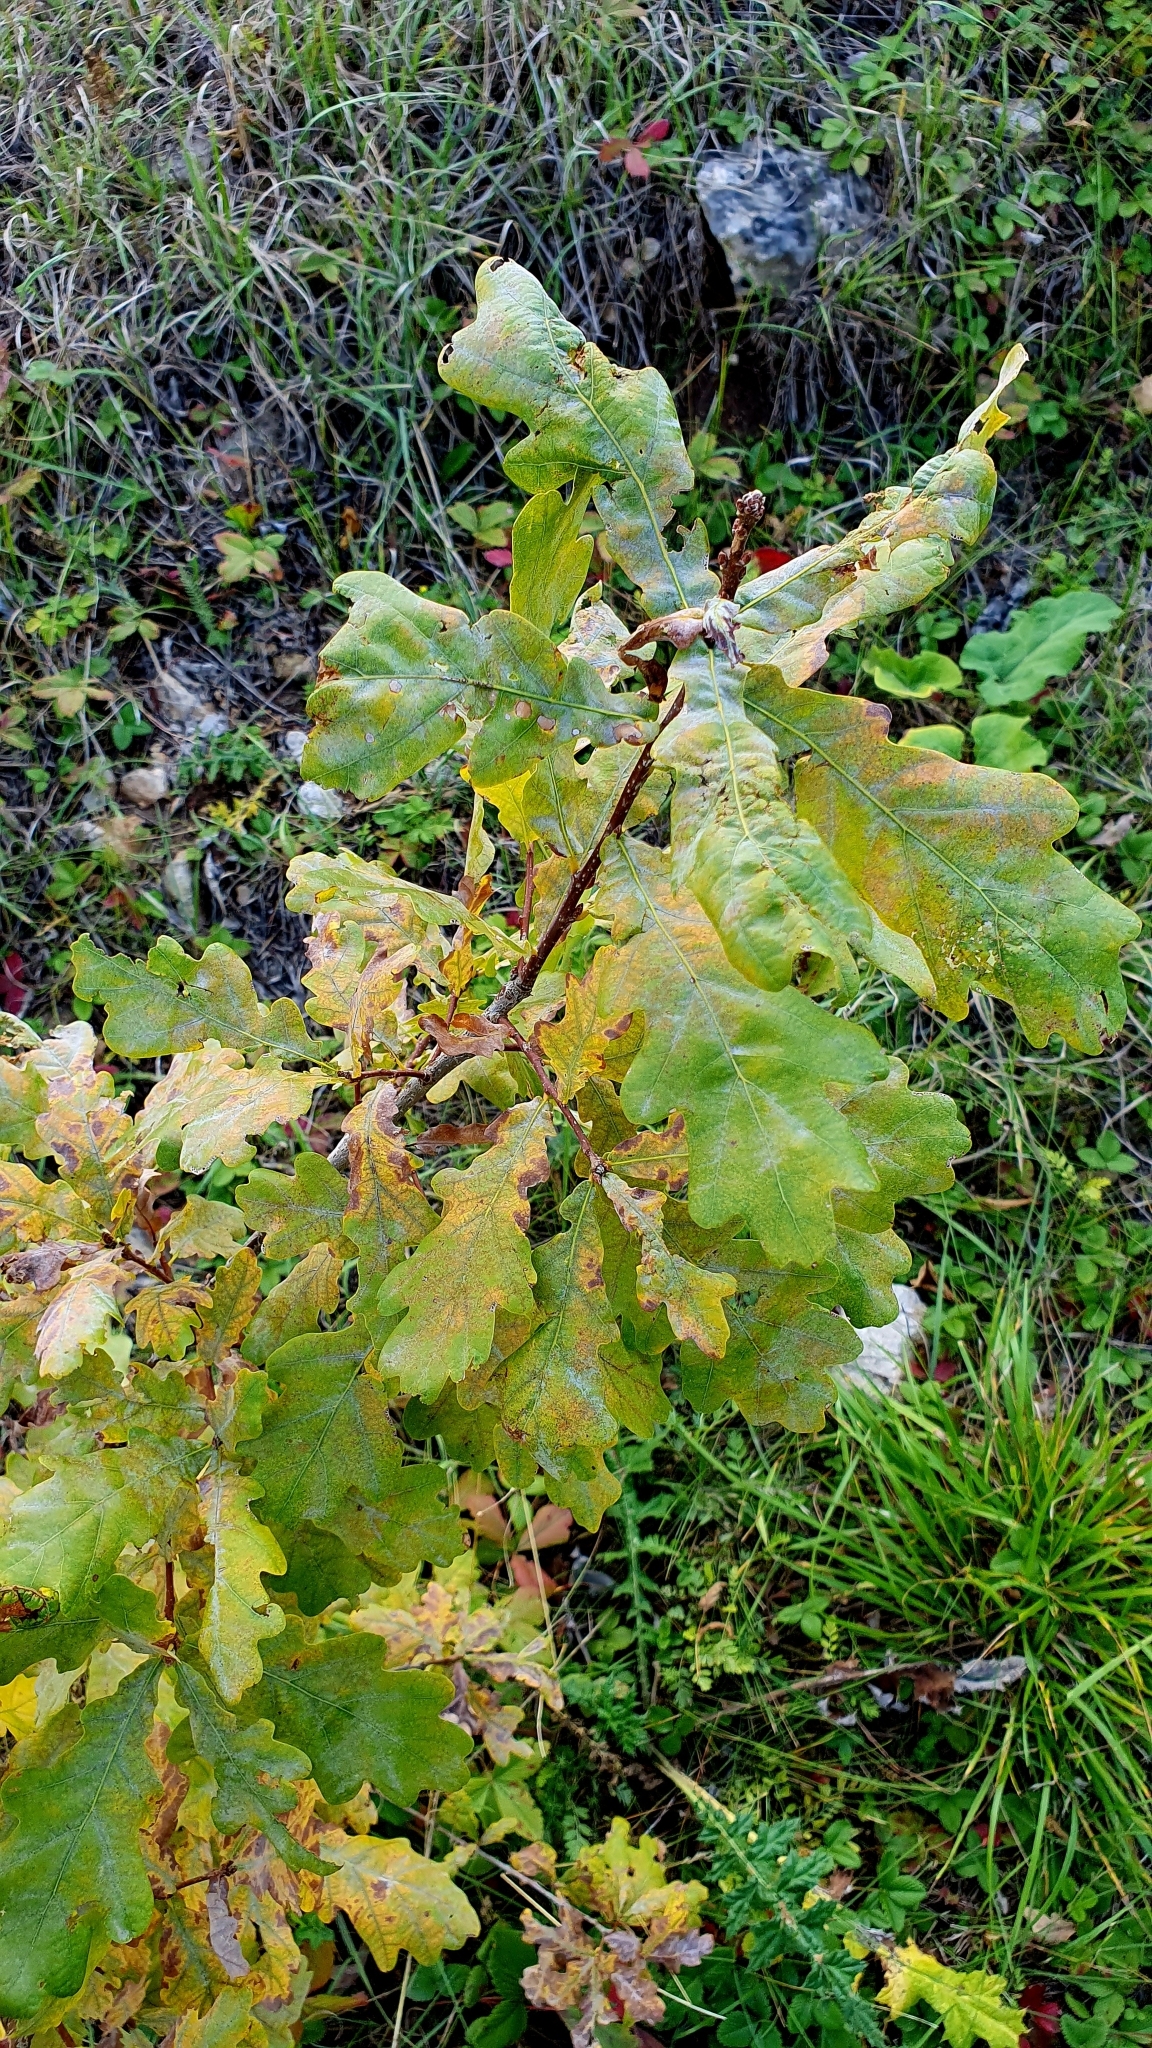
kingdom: Plantae
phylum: Tracheophyta
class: Magnoliopsida
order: Fagales
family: Fagaceae
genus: Quercus
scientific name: Quercus robur
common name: Pedunculate oak
